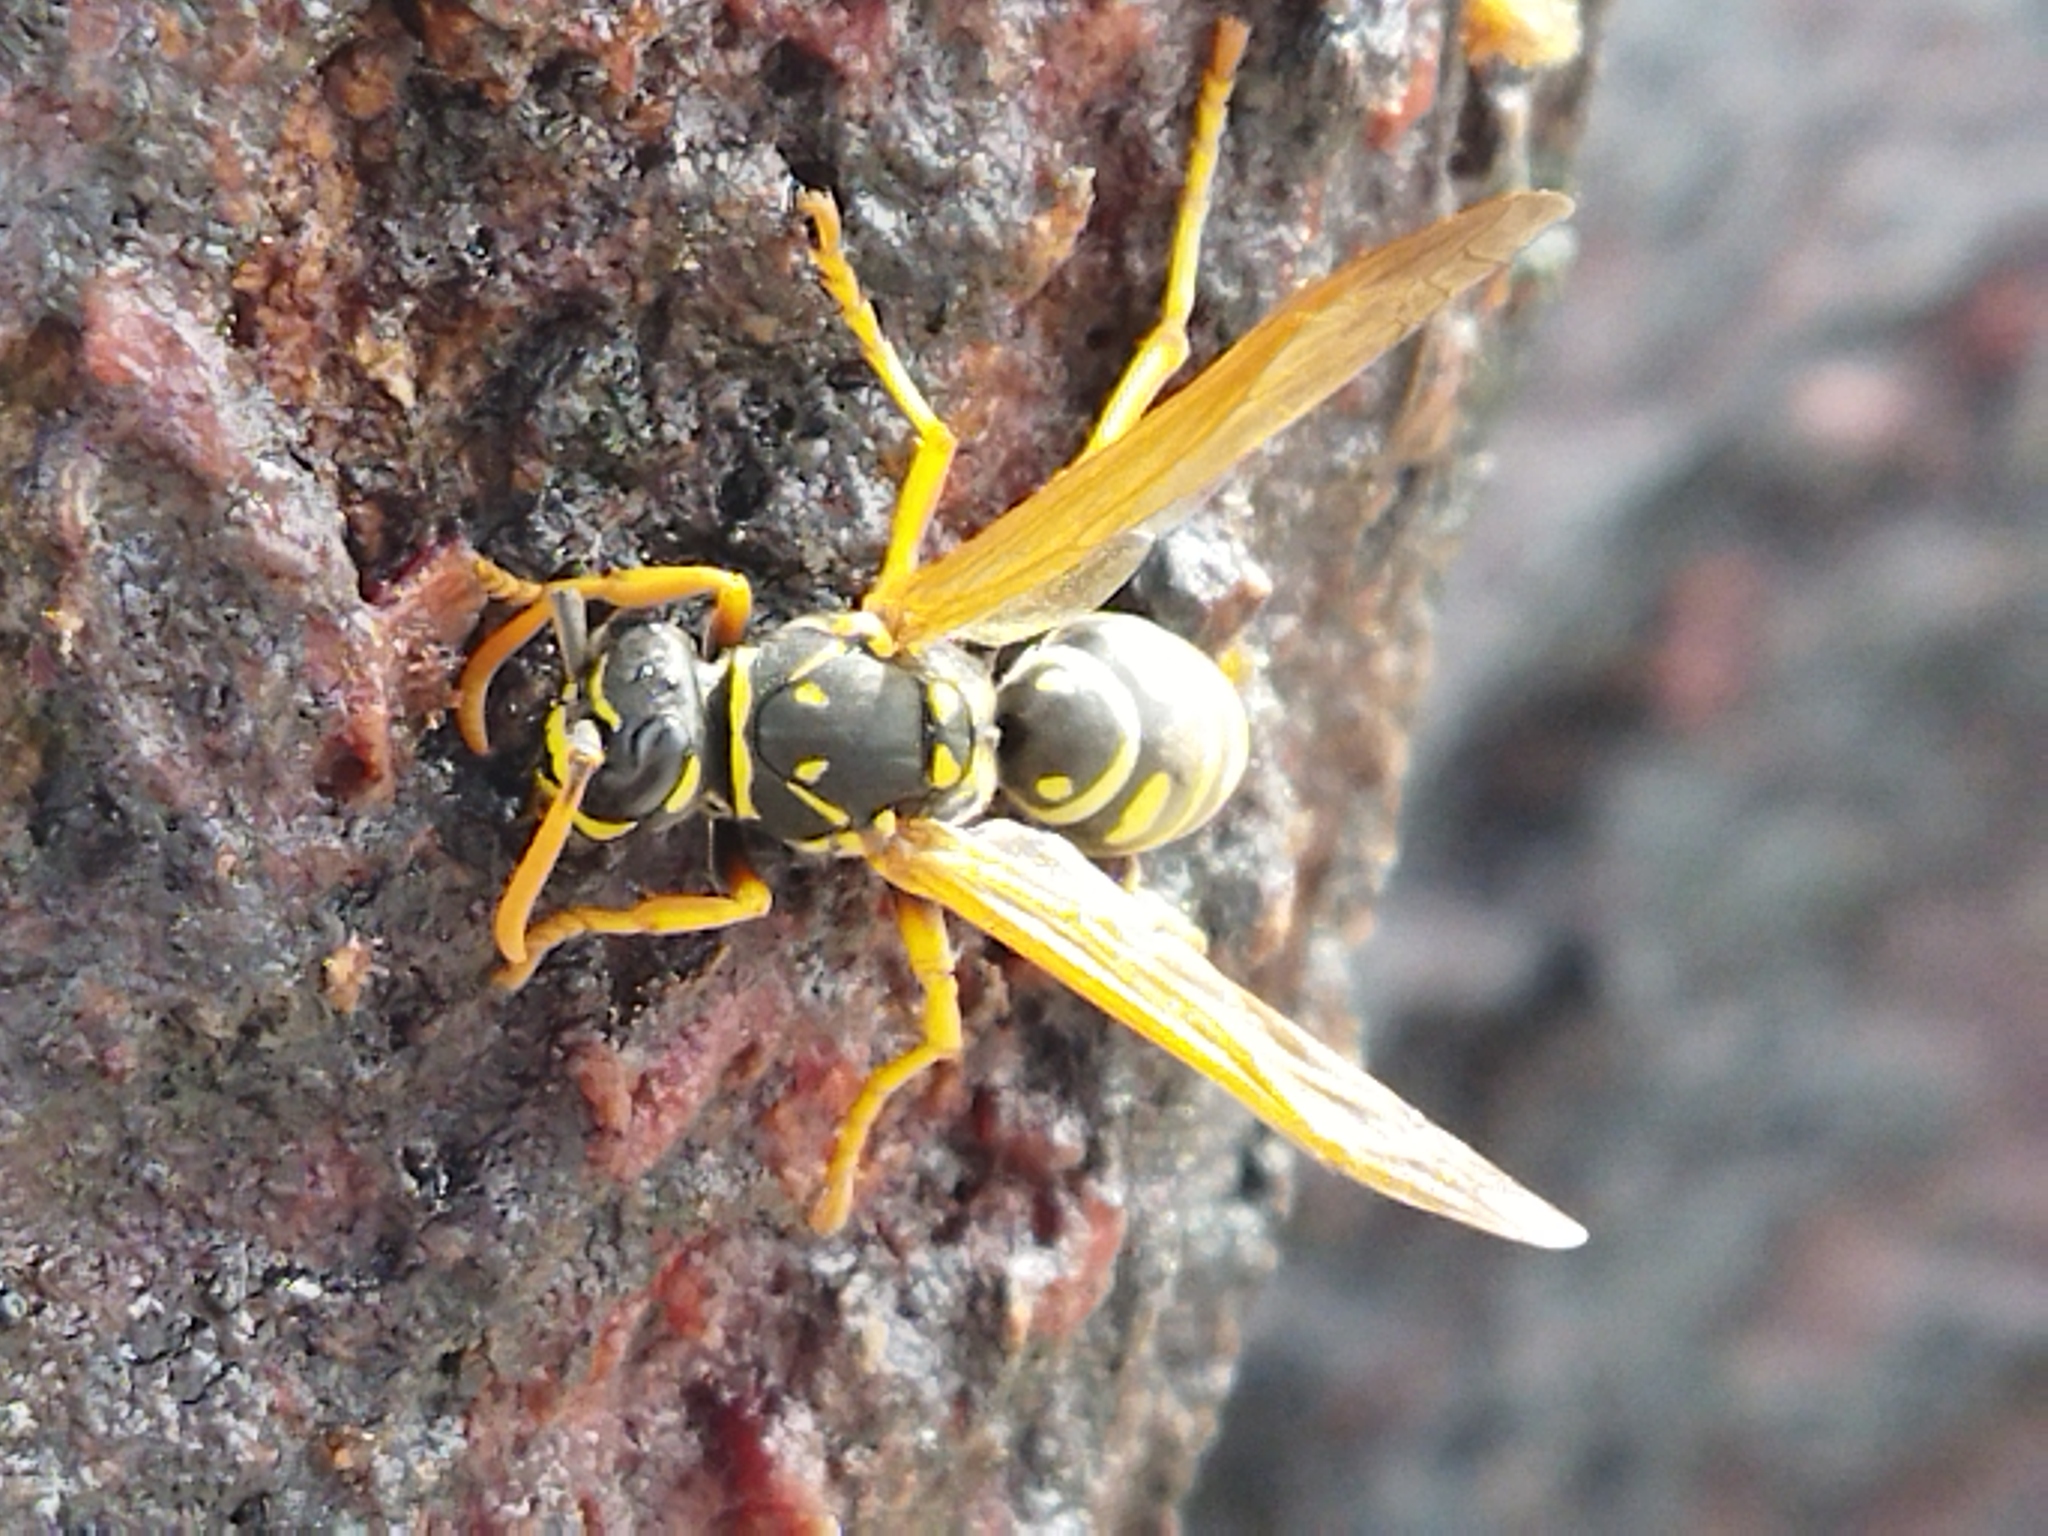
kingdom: Animalia
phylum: Arthropoda
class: Insecta
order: Hymenoptera
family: Eumenidae
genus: Polistes
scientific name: Polistes dominula
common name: Paper wasp
